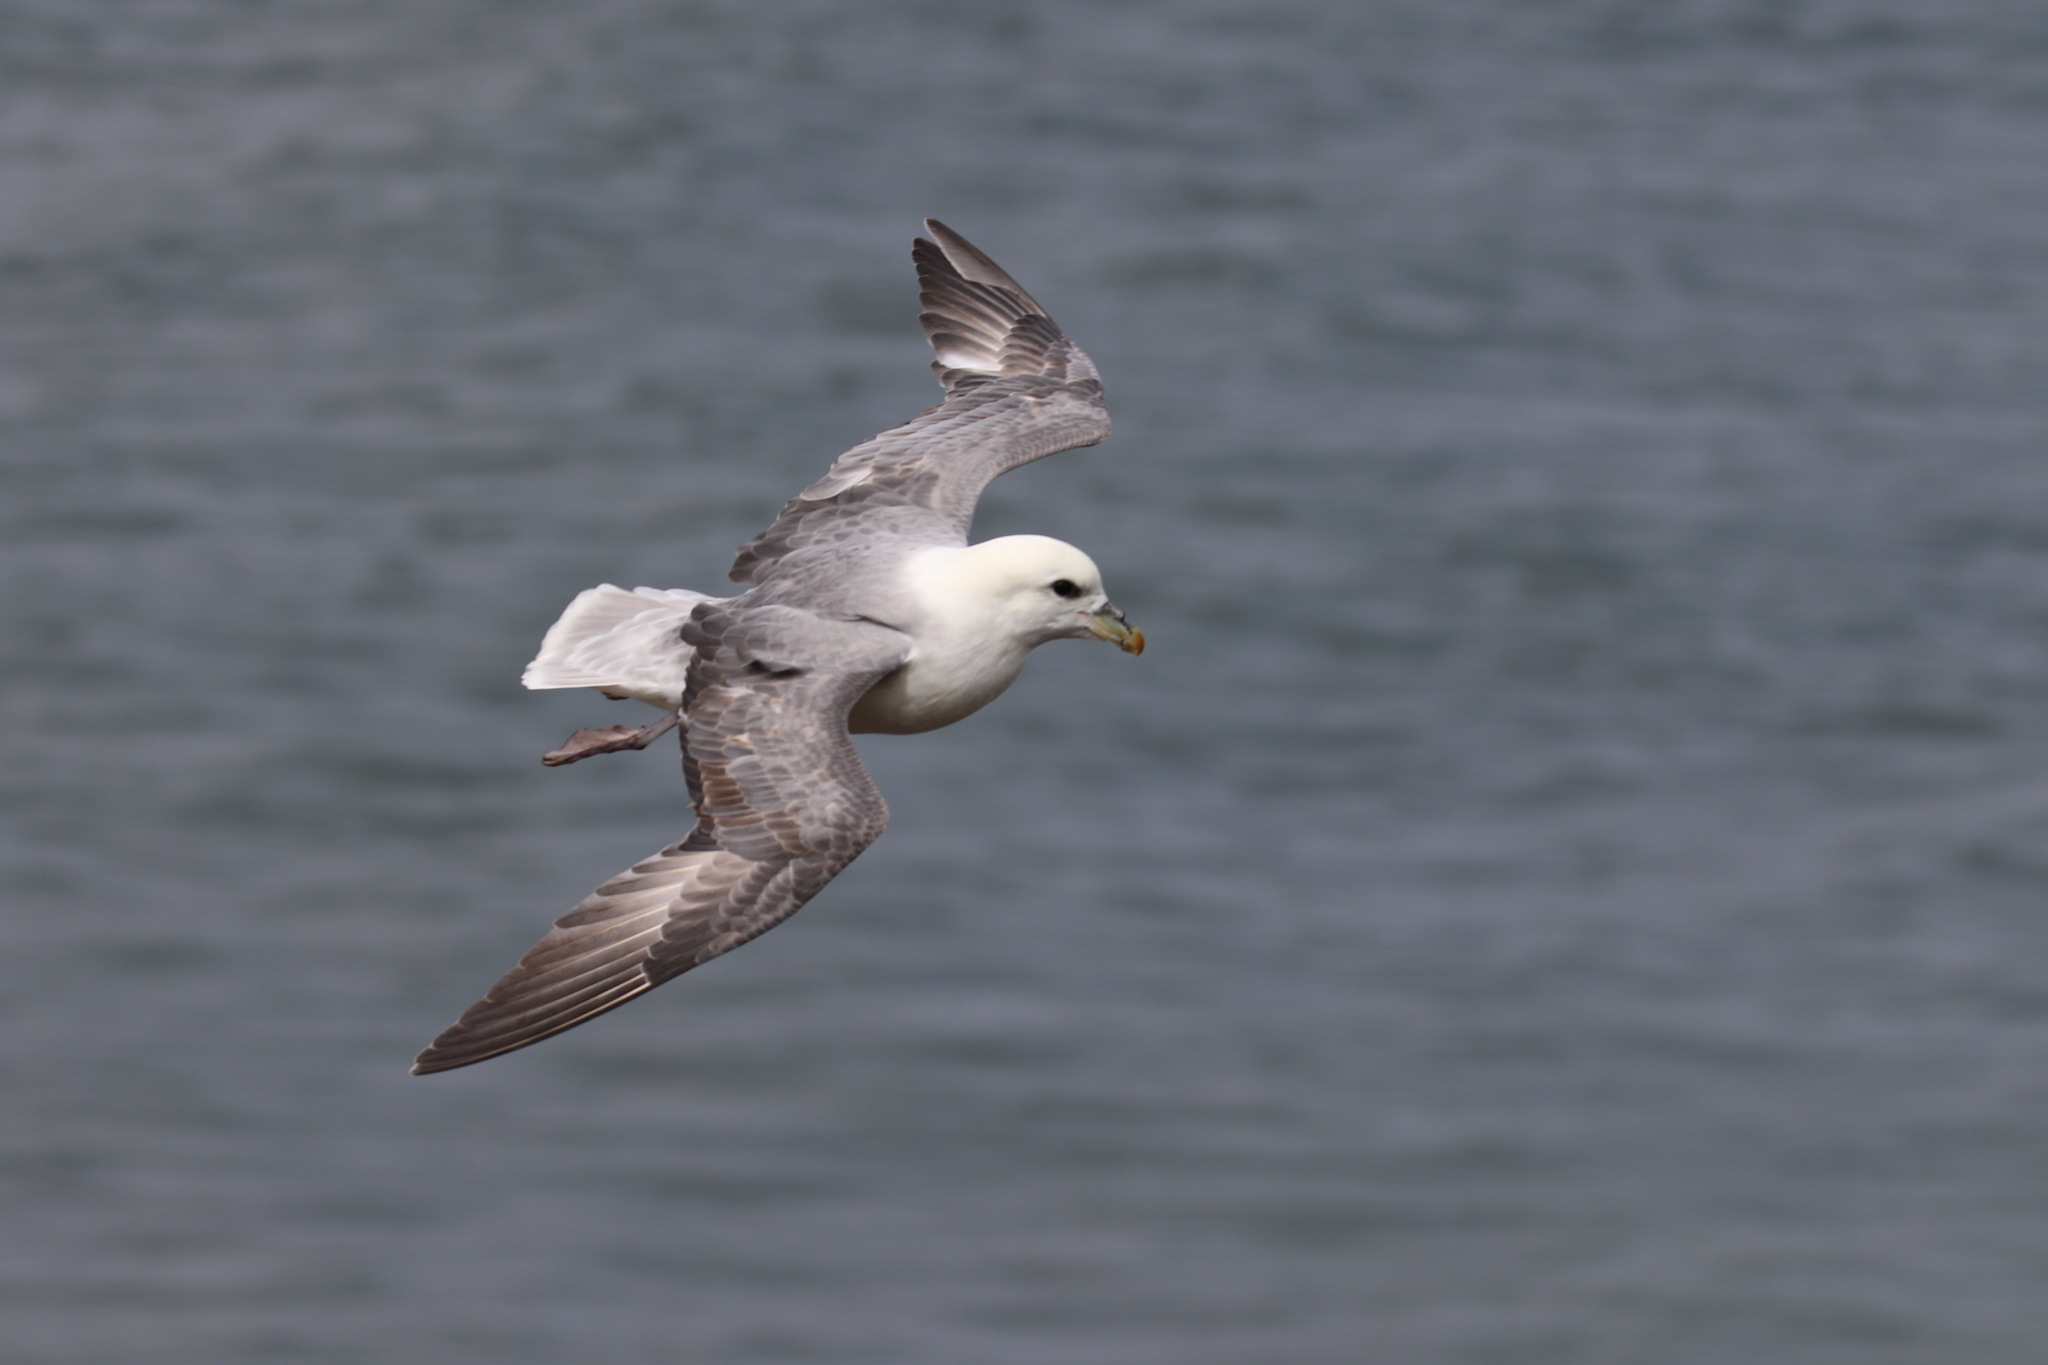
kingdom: Animalia
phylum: Chordata
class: Aves
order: Procellariiformes
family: Procellariidae
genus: Fulmarus
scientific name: Fulmarus glacialis
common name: Northern fulmar
